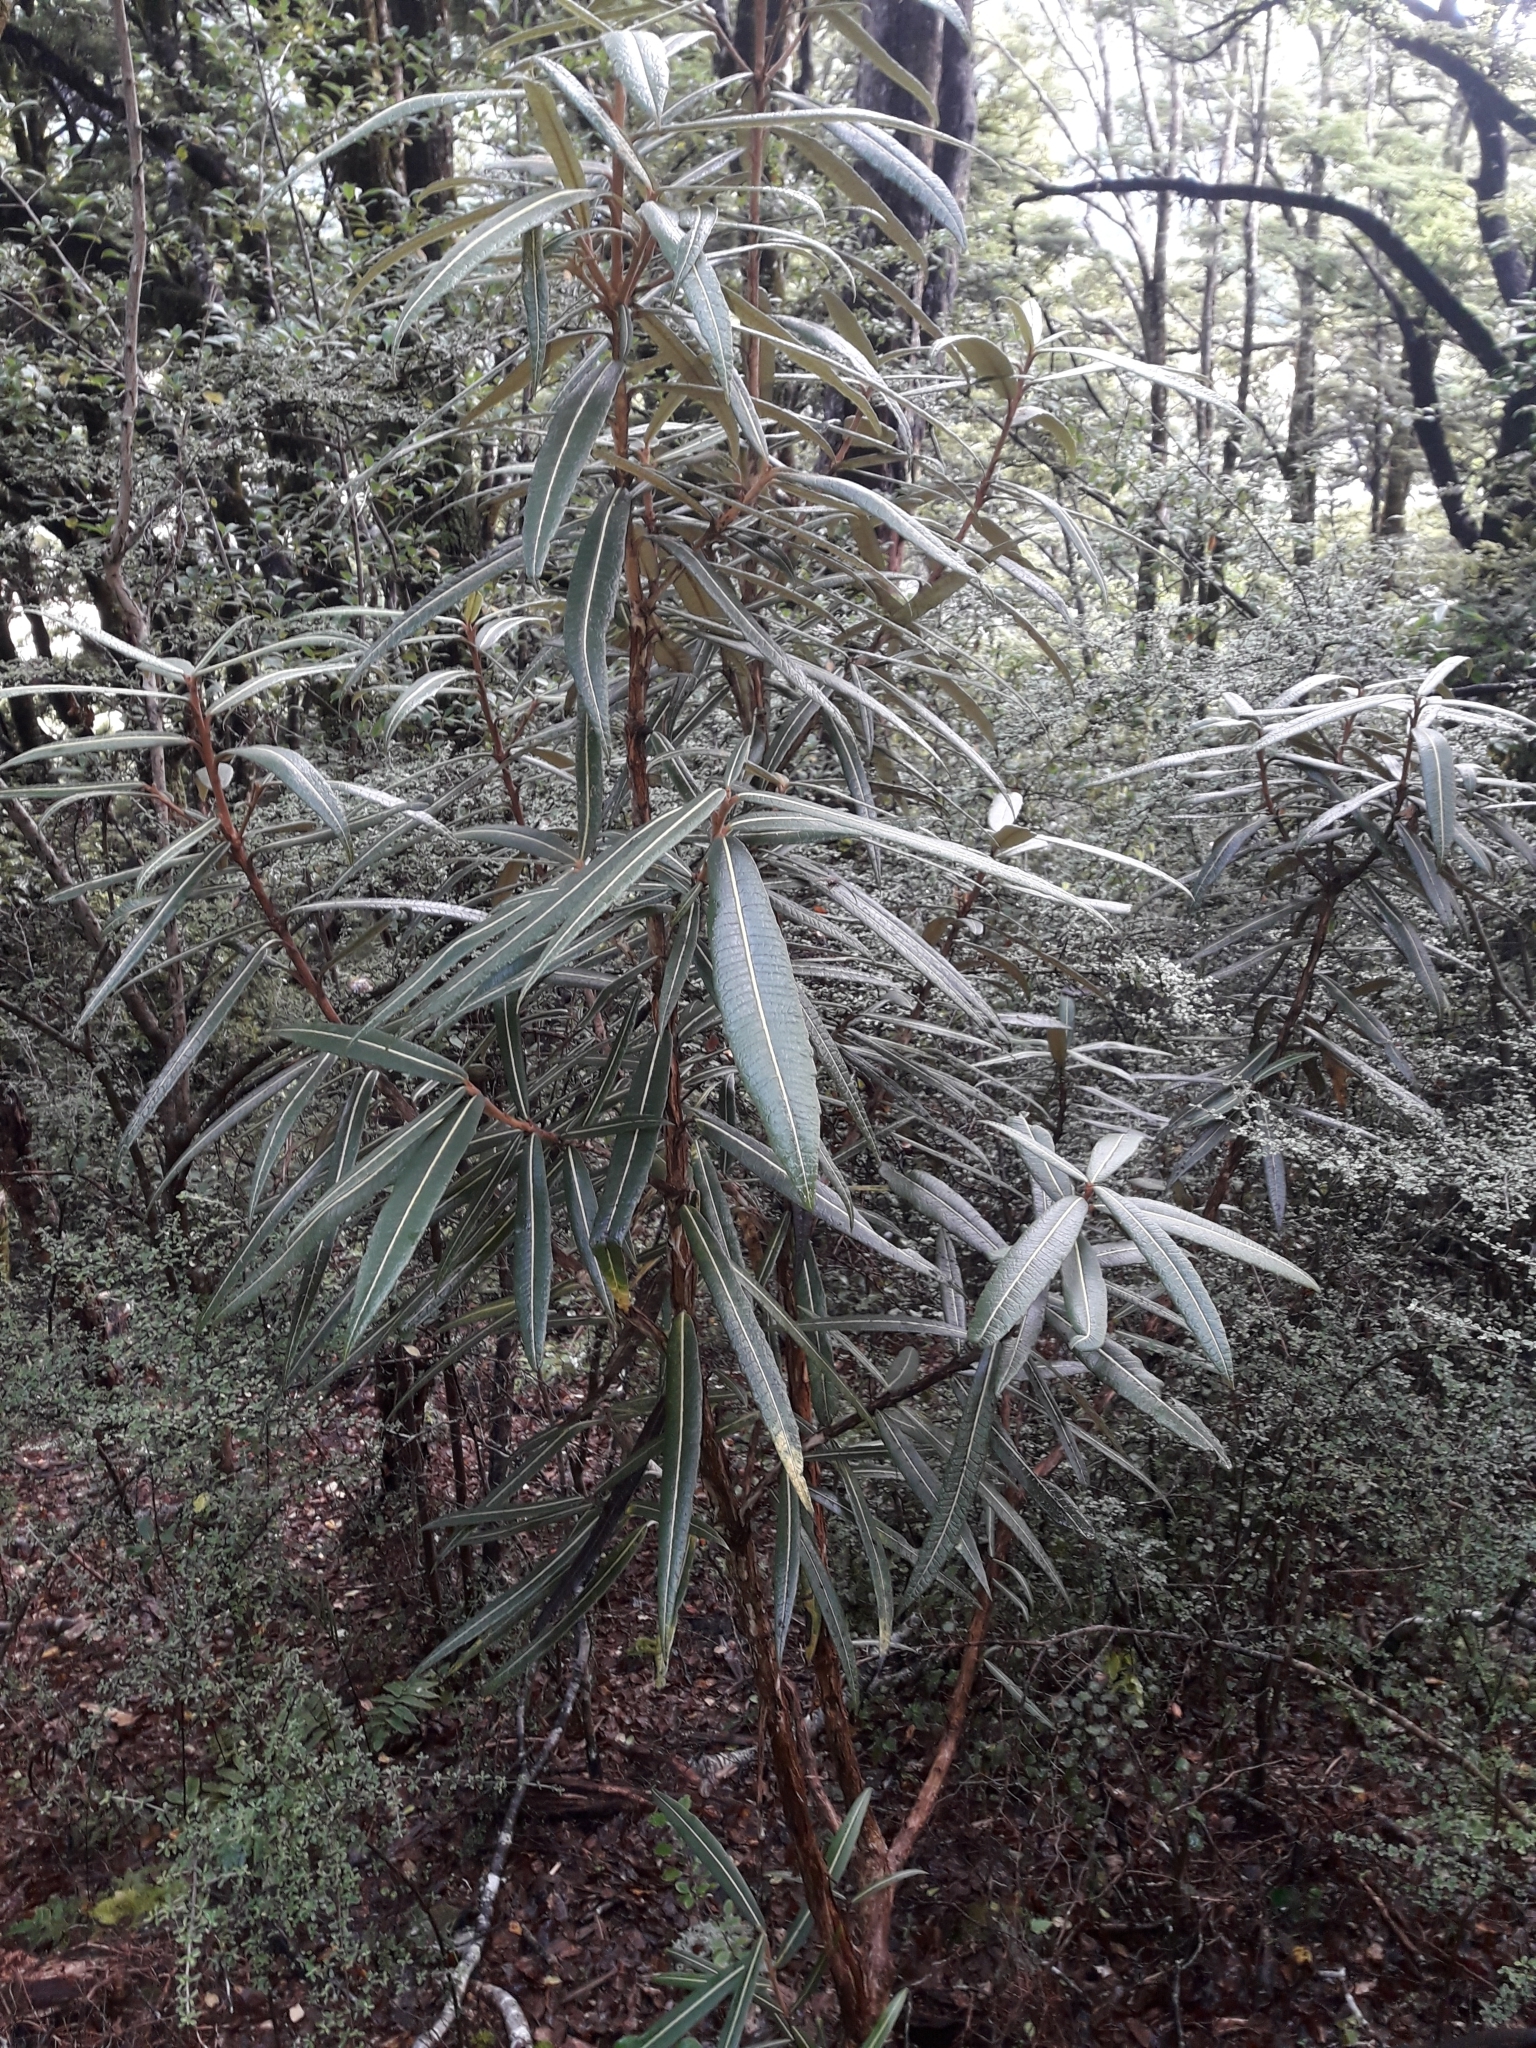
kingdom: Plantae
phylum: Tracheophyta
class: Magnoliopsida
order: Asterales
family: Asteraceae
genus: Olearia
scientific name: Olearia lacunosa
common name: Lancewood tree daisy
